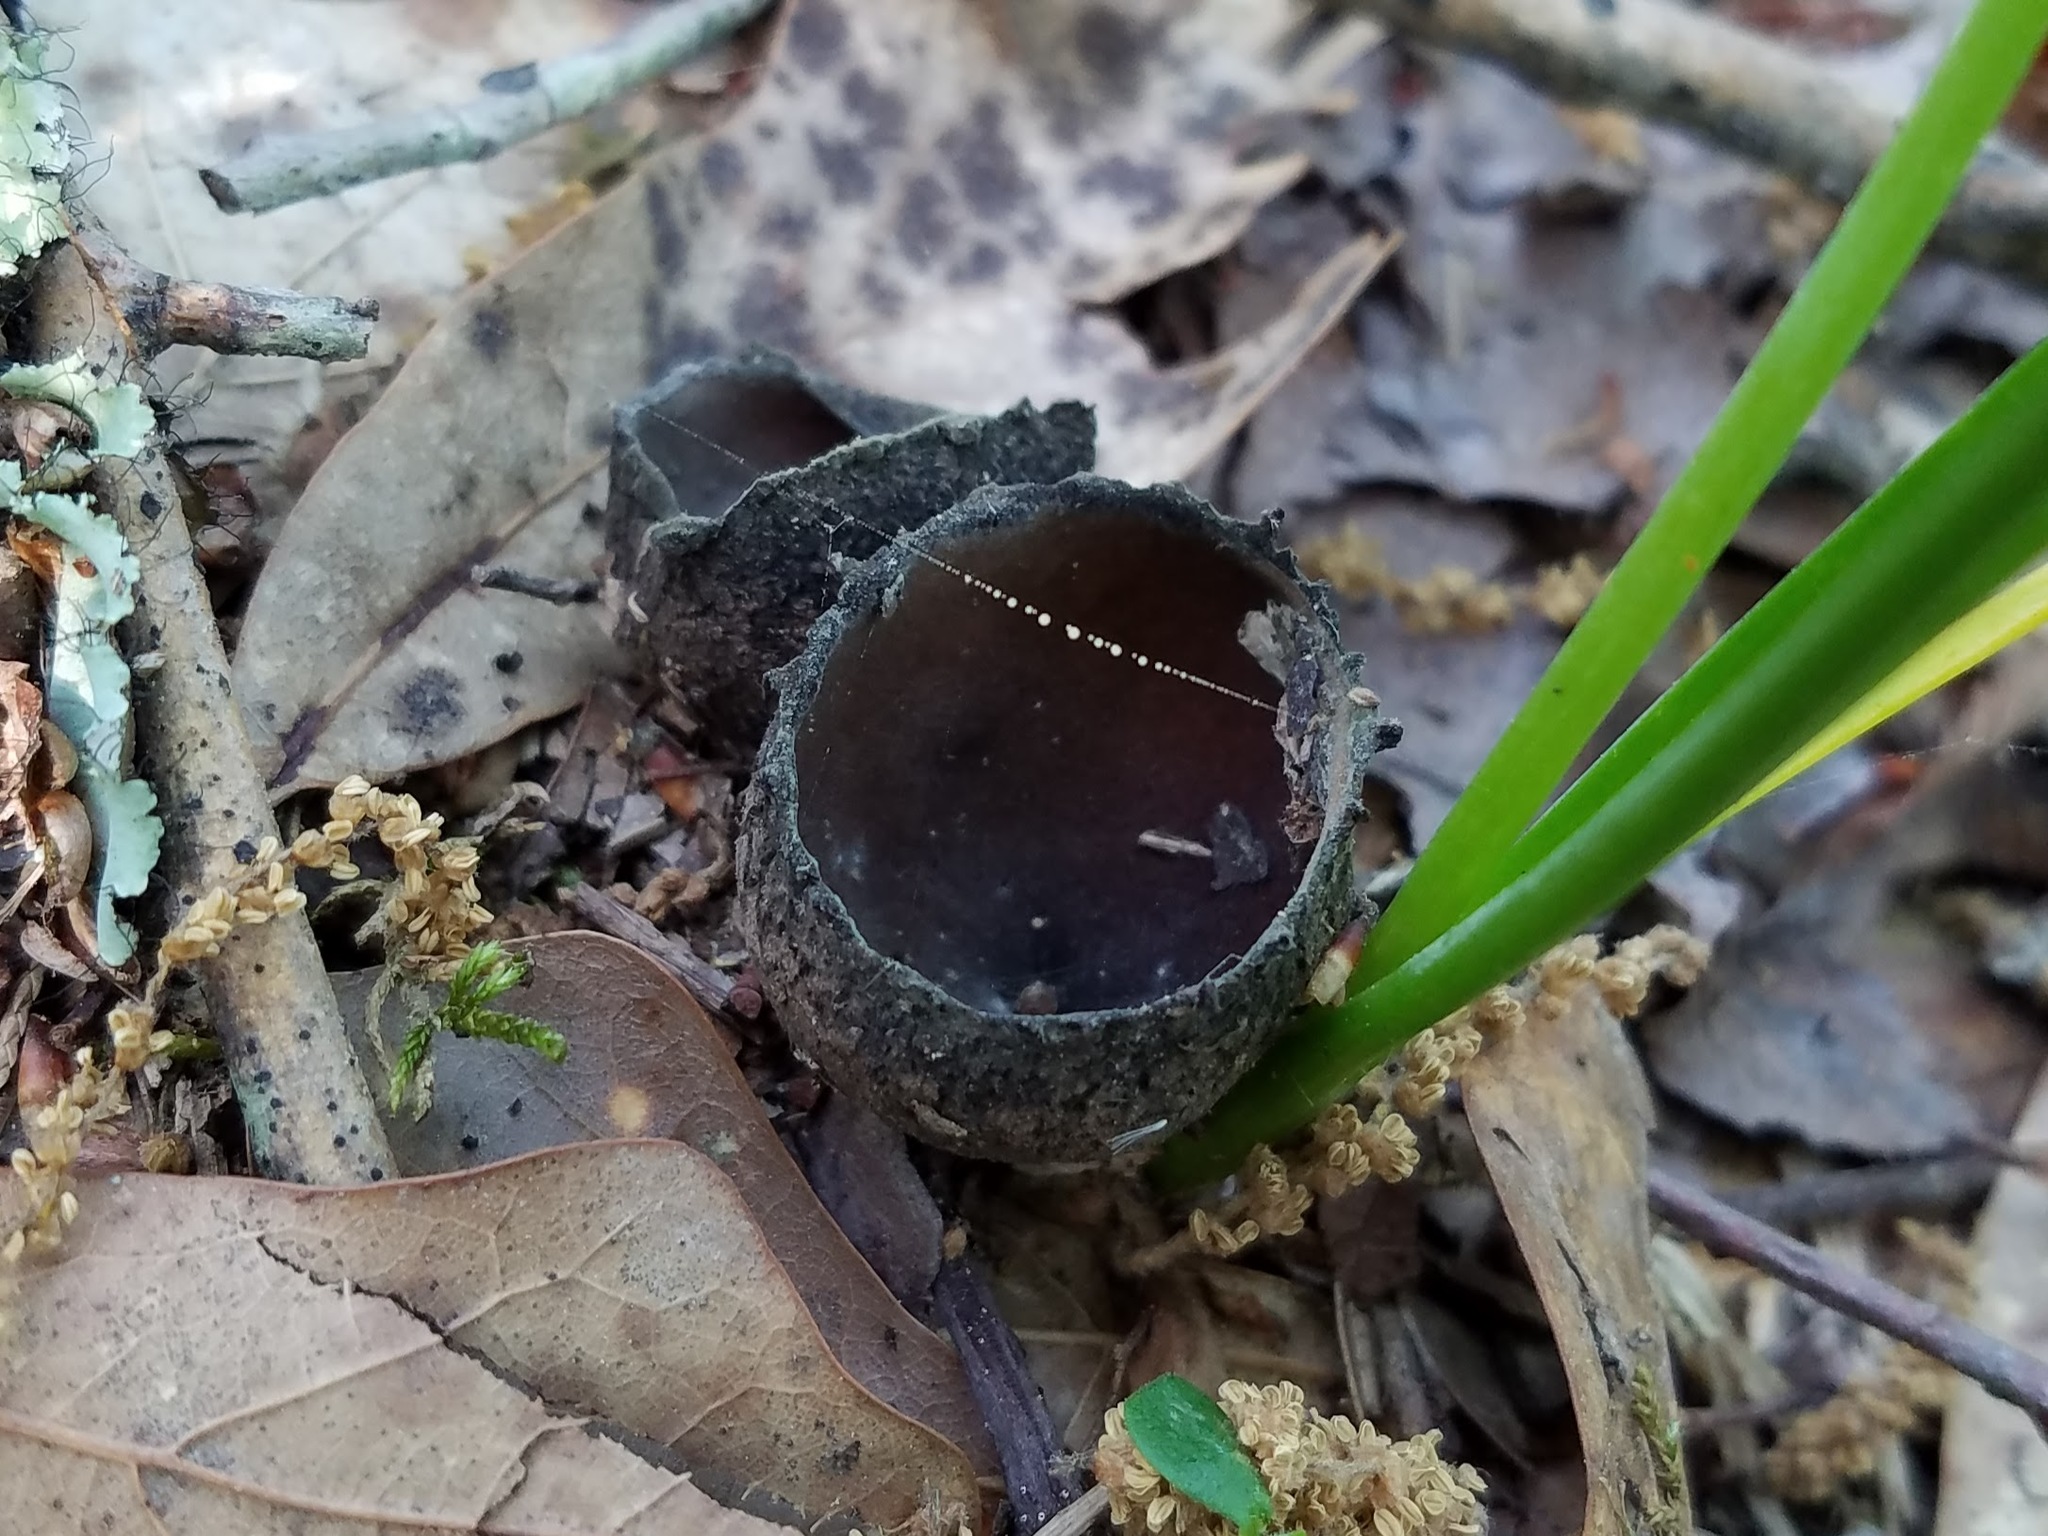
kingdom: Fungi
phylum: Ascomycota
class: Pezizomycetes
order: Pezizales
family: Sarcosomataceae
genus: Urnula
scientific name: Urnula craterium
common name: Devil's urn
